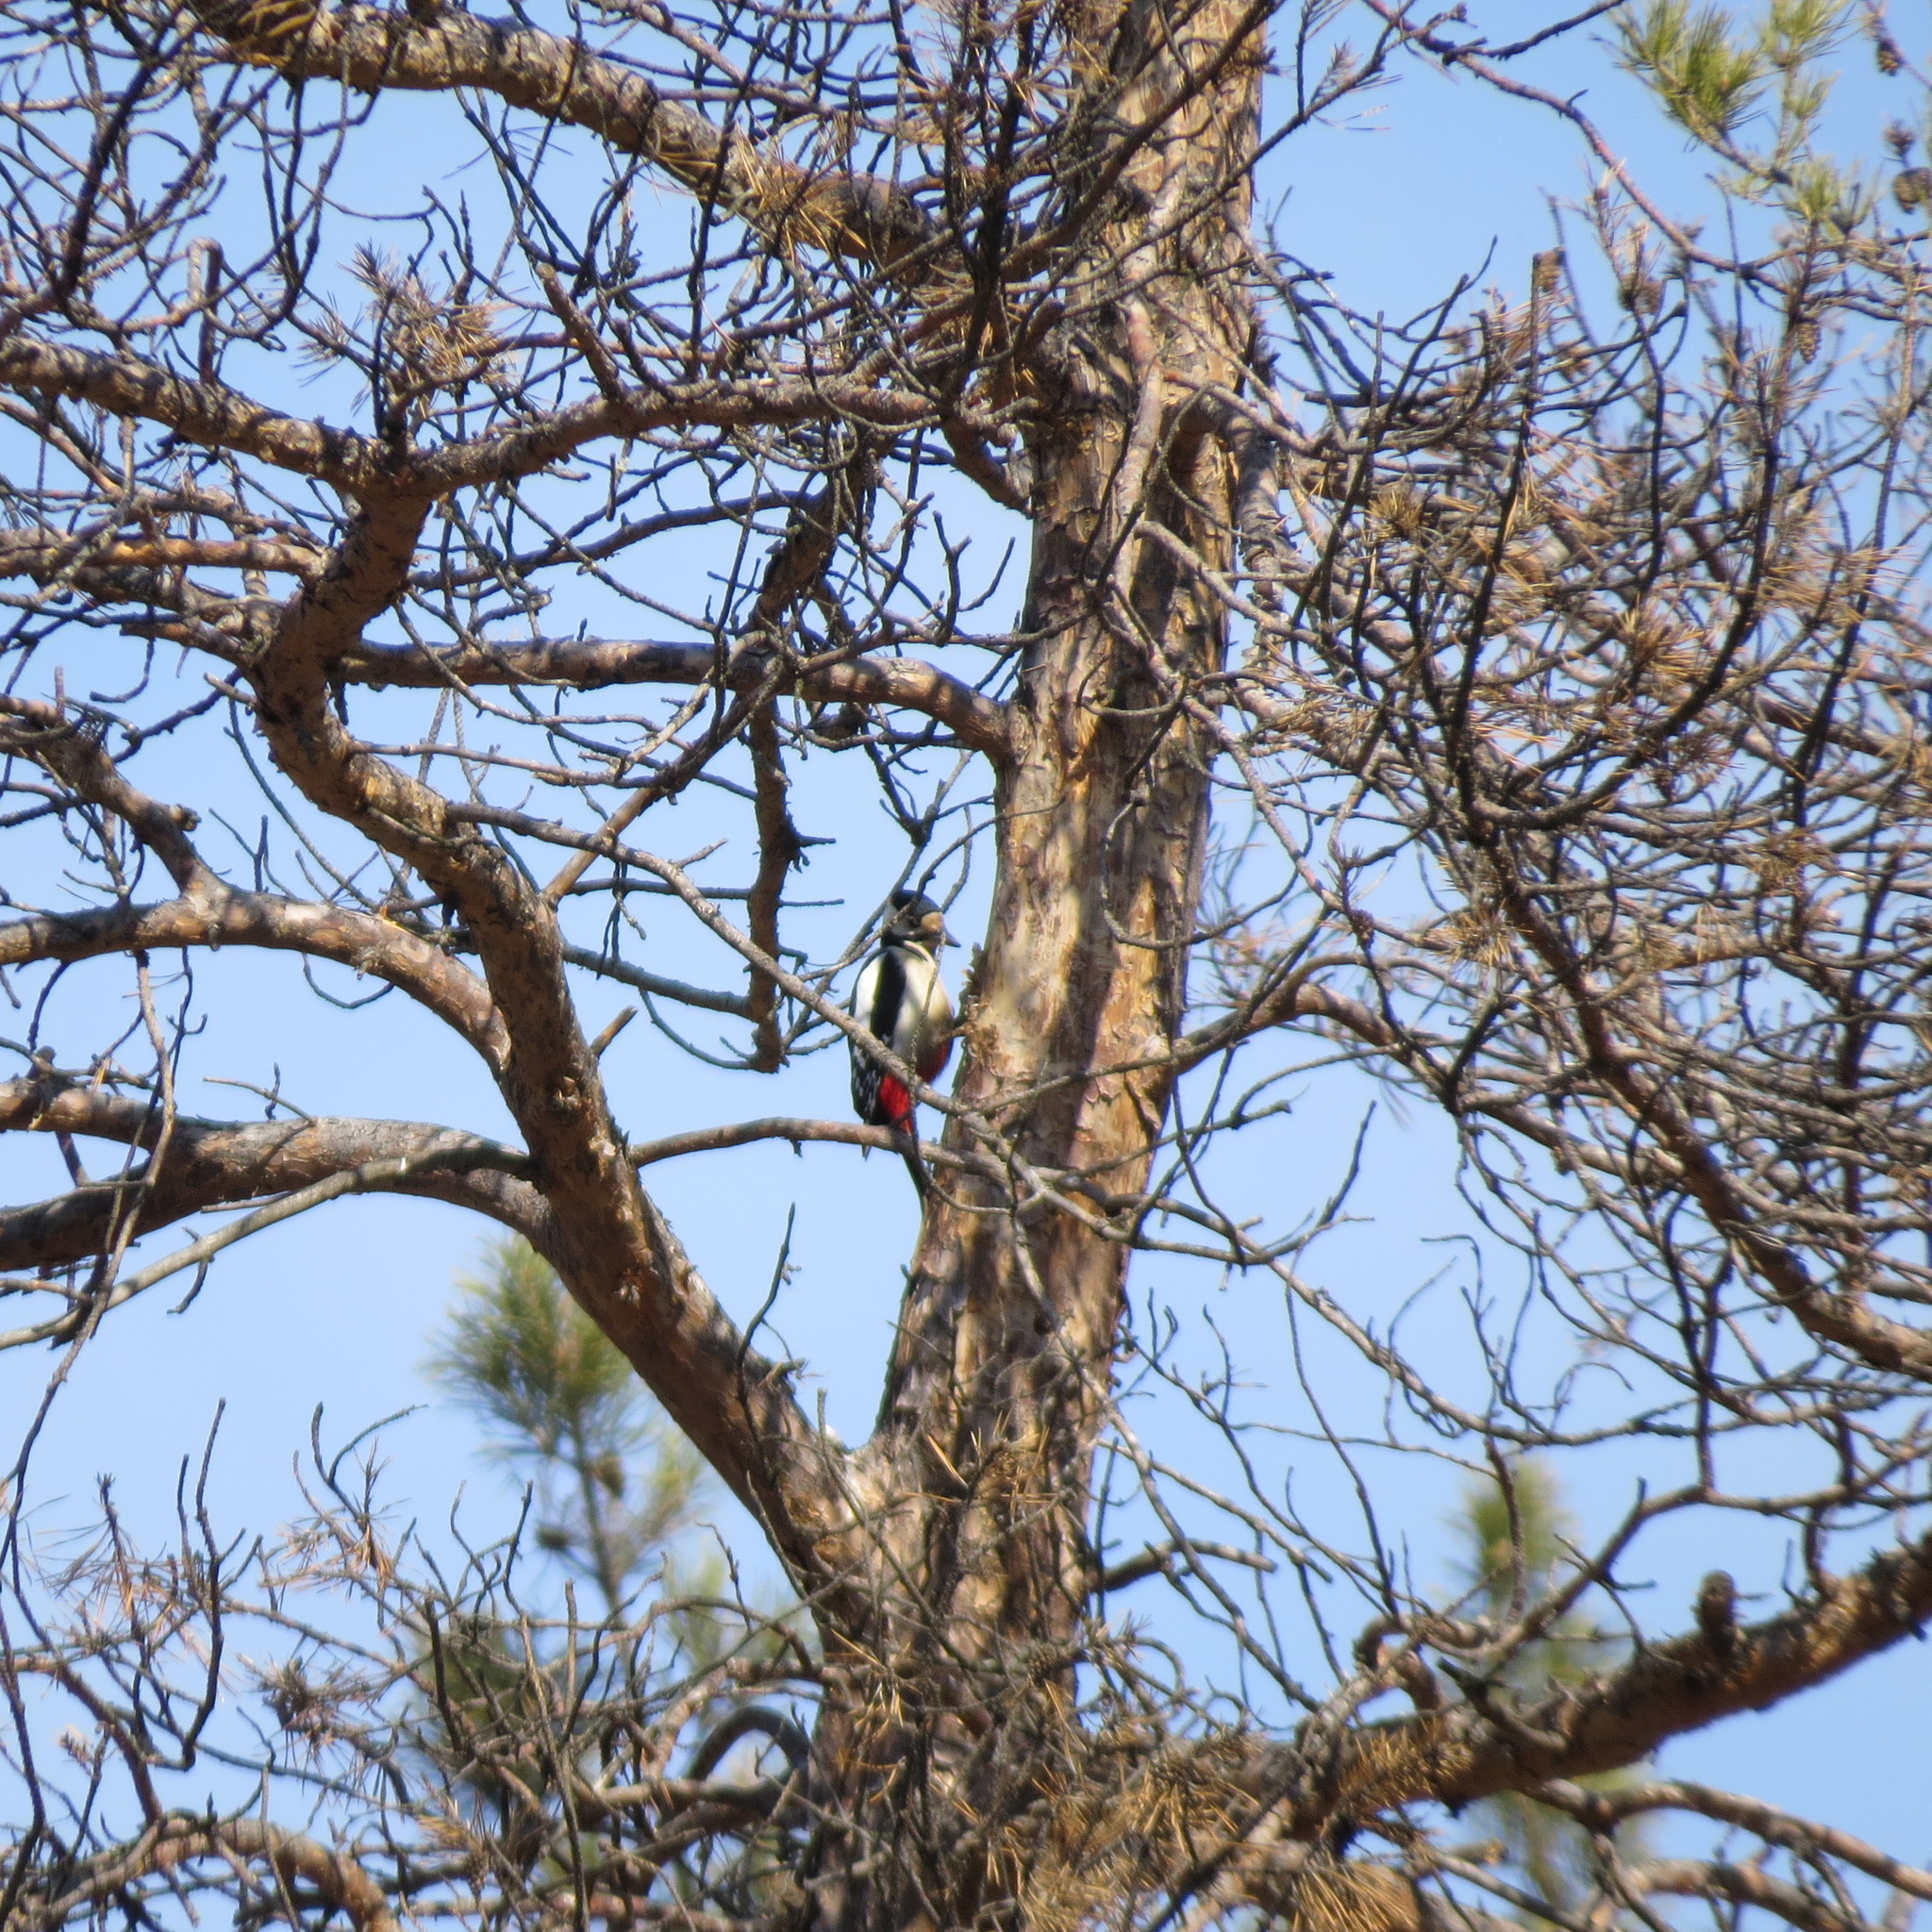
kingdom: Animalia
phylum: Chordata
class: Aves
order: Piciformes
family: Picidae
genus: Dendrocopos
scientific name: Dendrocopos major
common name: Great spotted woodpecker
